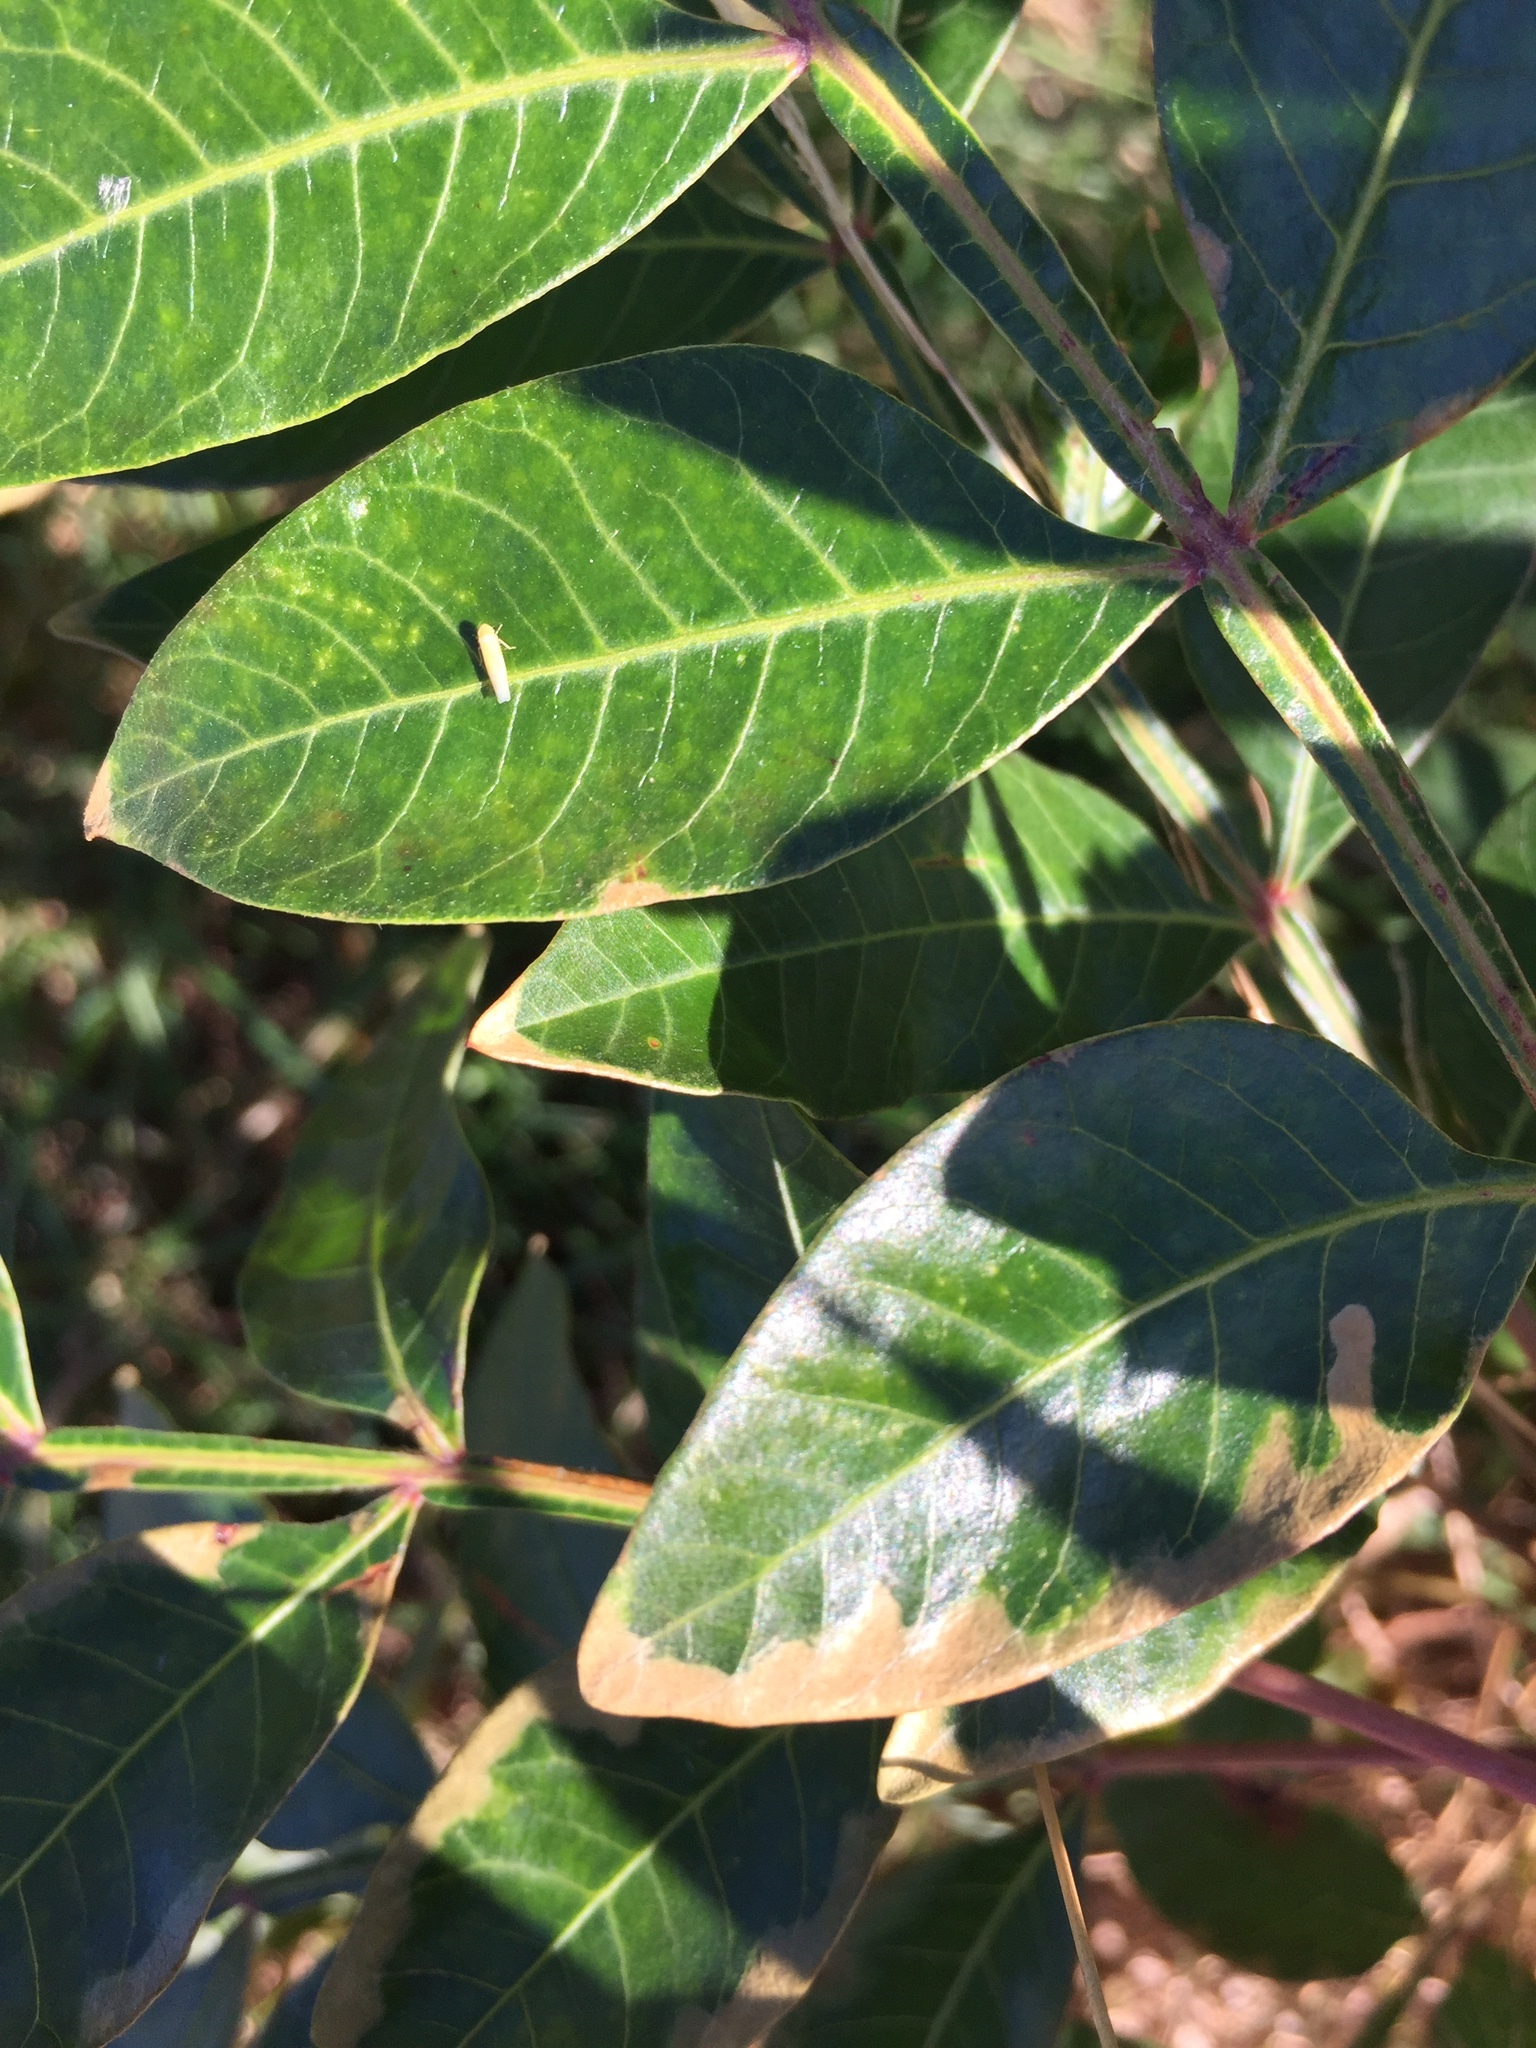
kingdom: Plantae
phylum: Tracheophyta
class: Magnoliopsida
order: Sapindales
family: Anacardiaceae
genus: Rhus
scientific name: Rhus copallina
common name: Shining sumac
